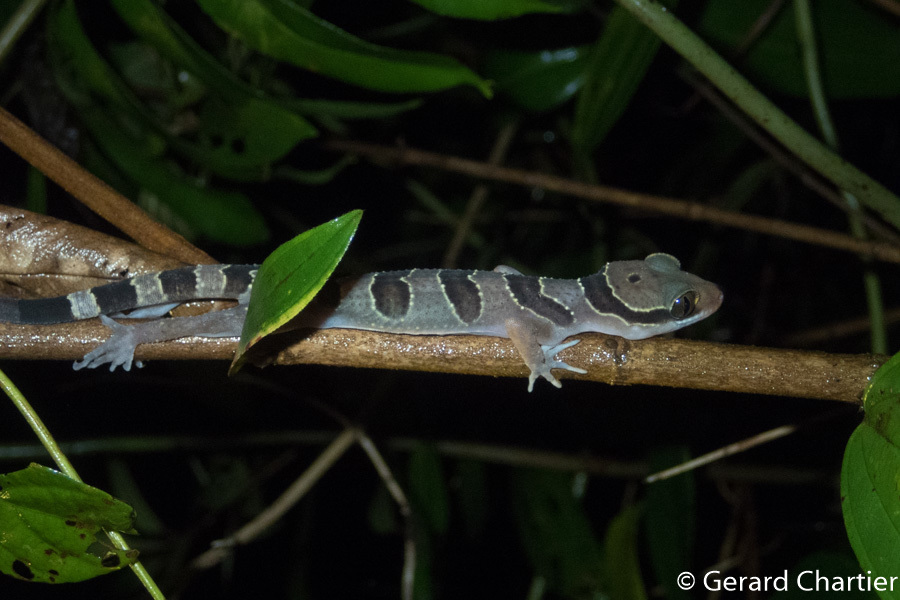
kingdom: Animalia
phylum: Chordata
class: Squamata
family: Gekkonidae
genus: Cyrtodactylus
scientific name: Cyrtodactylus intermedius
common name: Cardamon forest gecko
